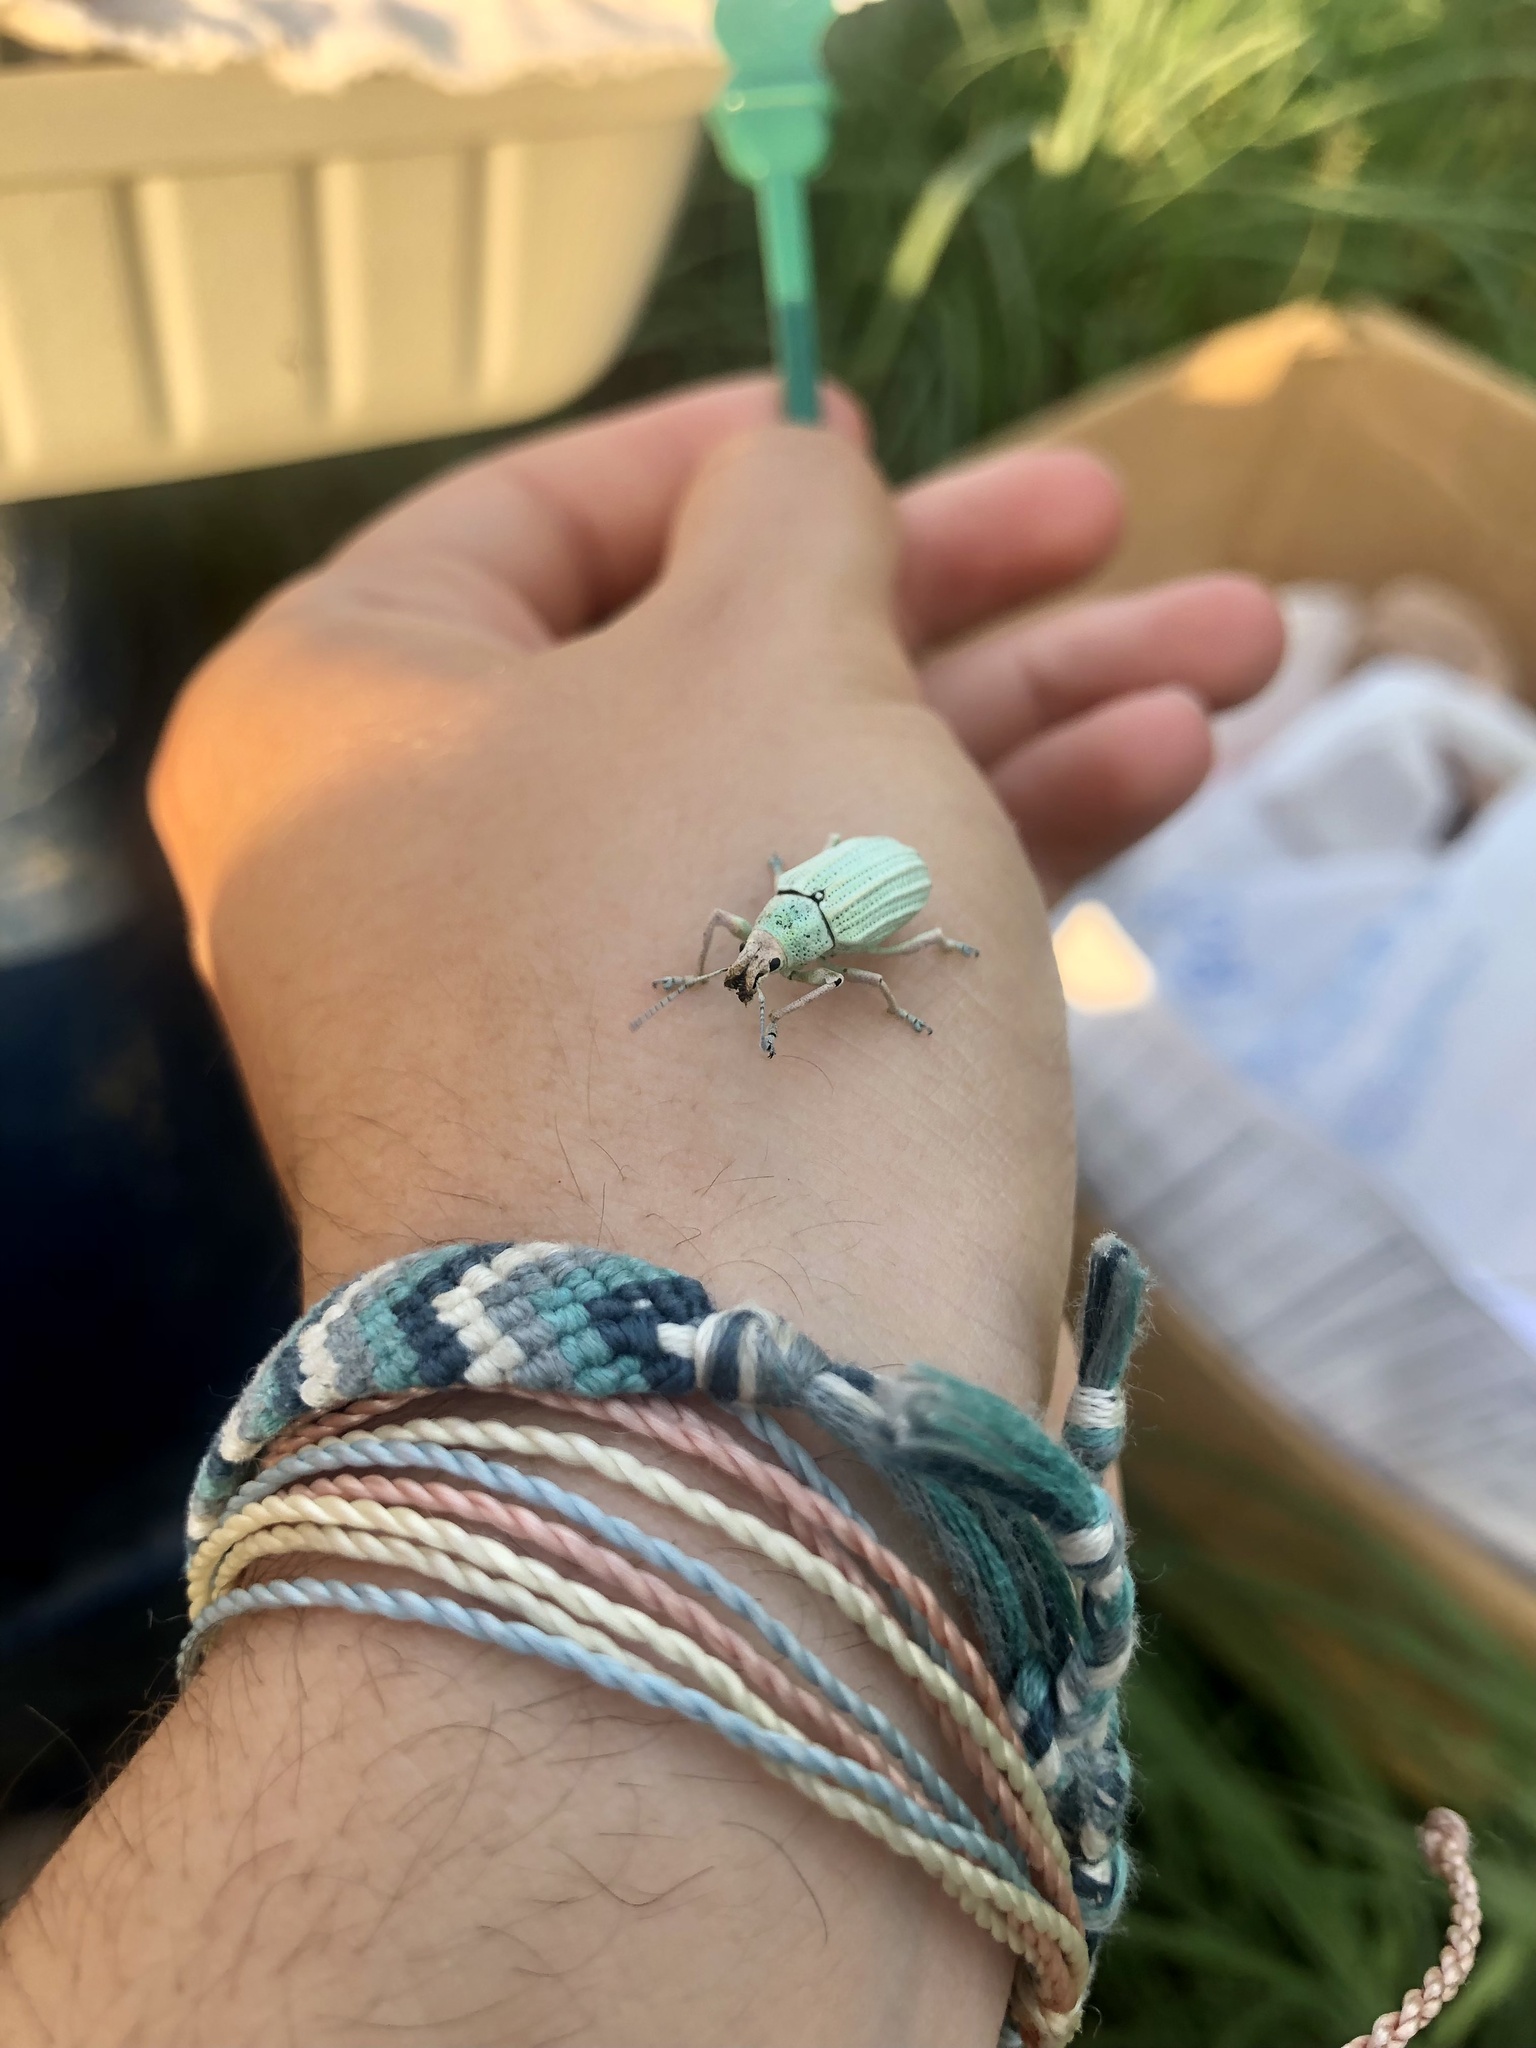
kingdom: Animalia
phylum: Arthropoda
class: Insecta
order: Coleoptera
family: Curculionidae
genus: Compsus
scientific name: Compsus auricephalus
